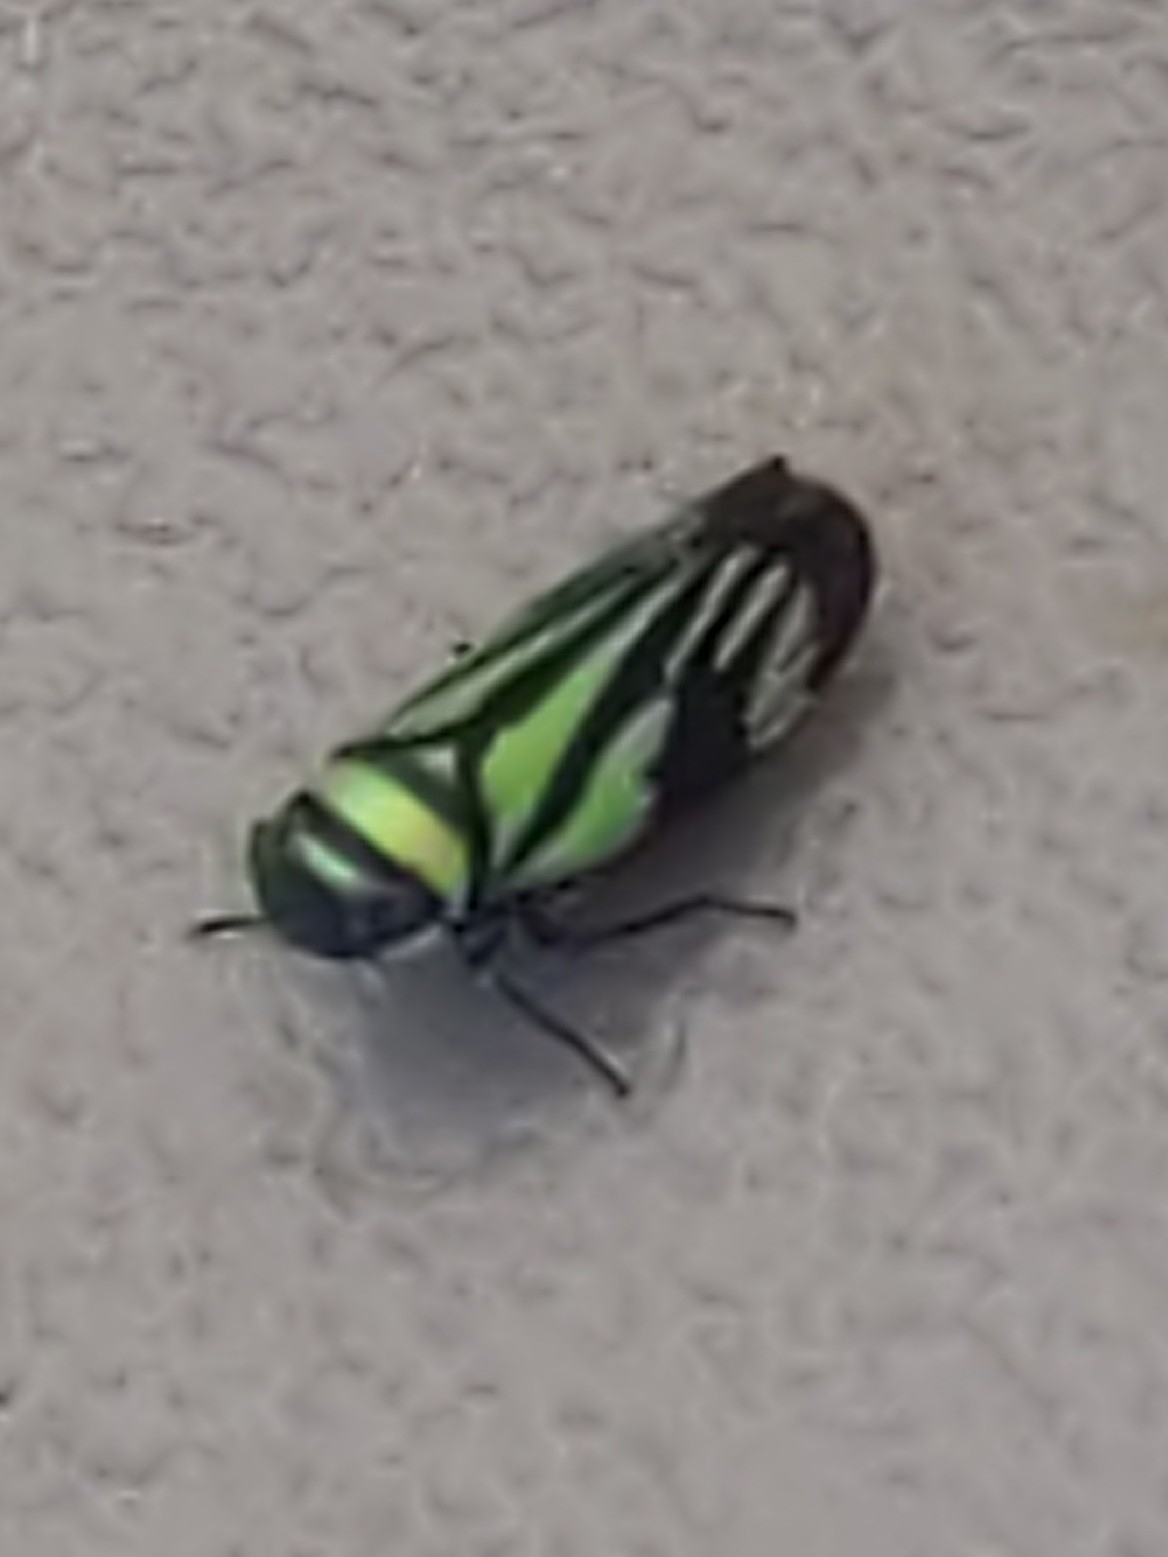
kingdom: Animalia
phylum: Arthropoda
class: Insecta
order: Hemiptera
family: Cicadellidae
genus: Stirellus
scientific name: Stirellus bicolor
